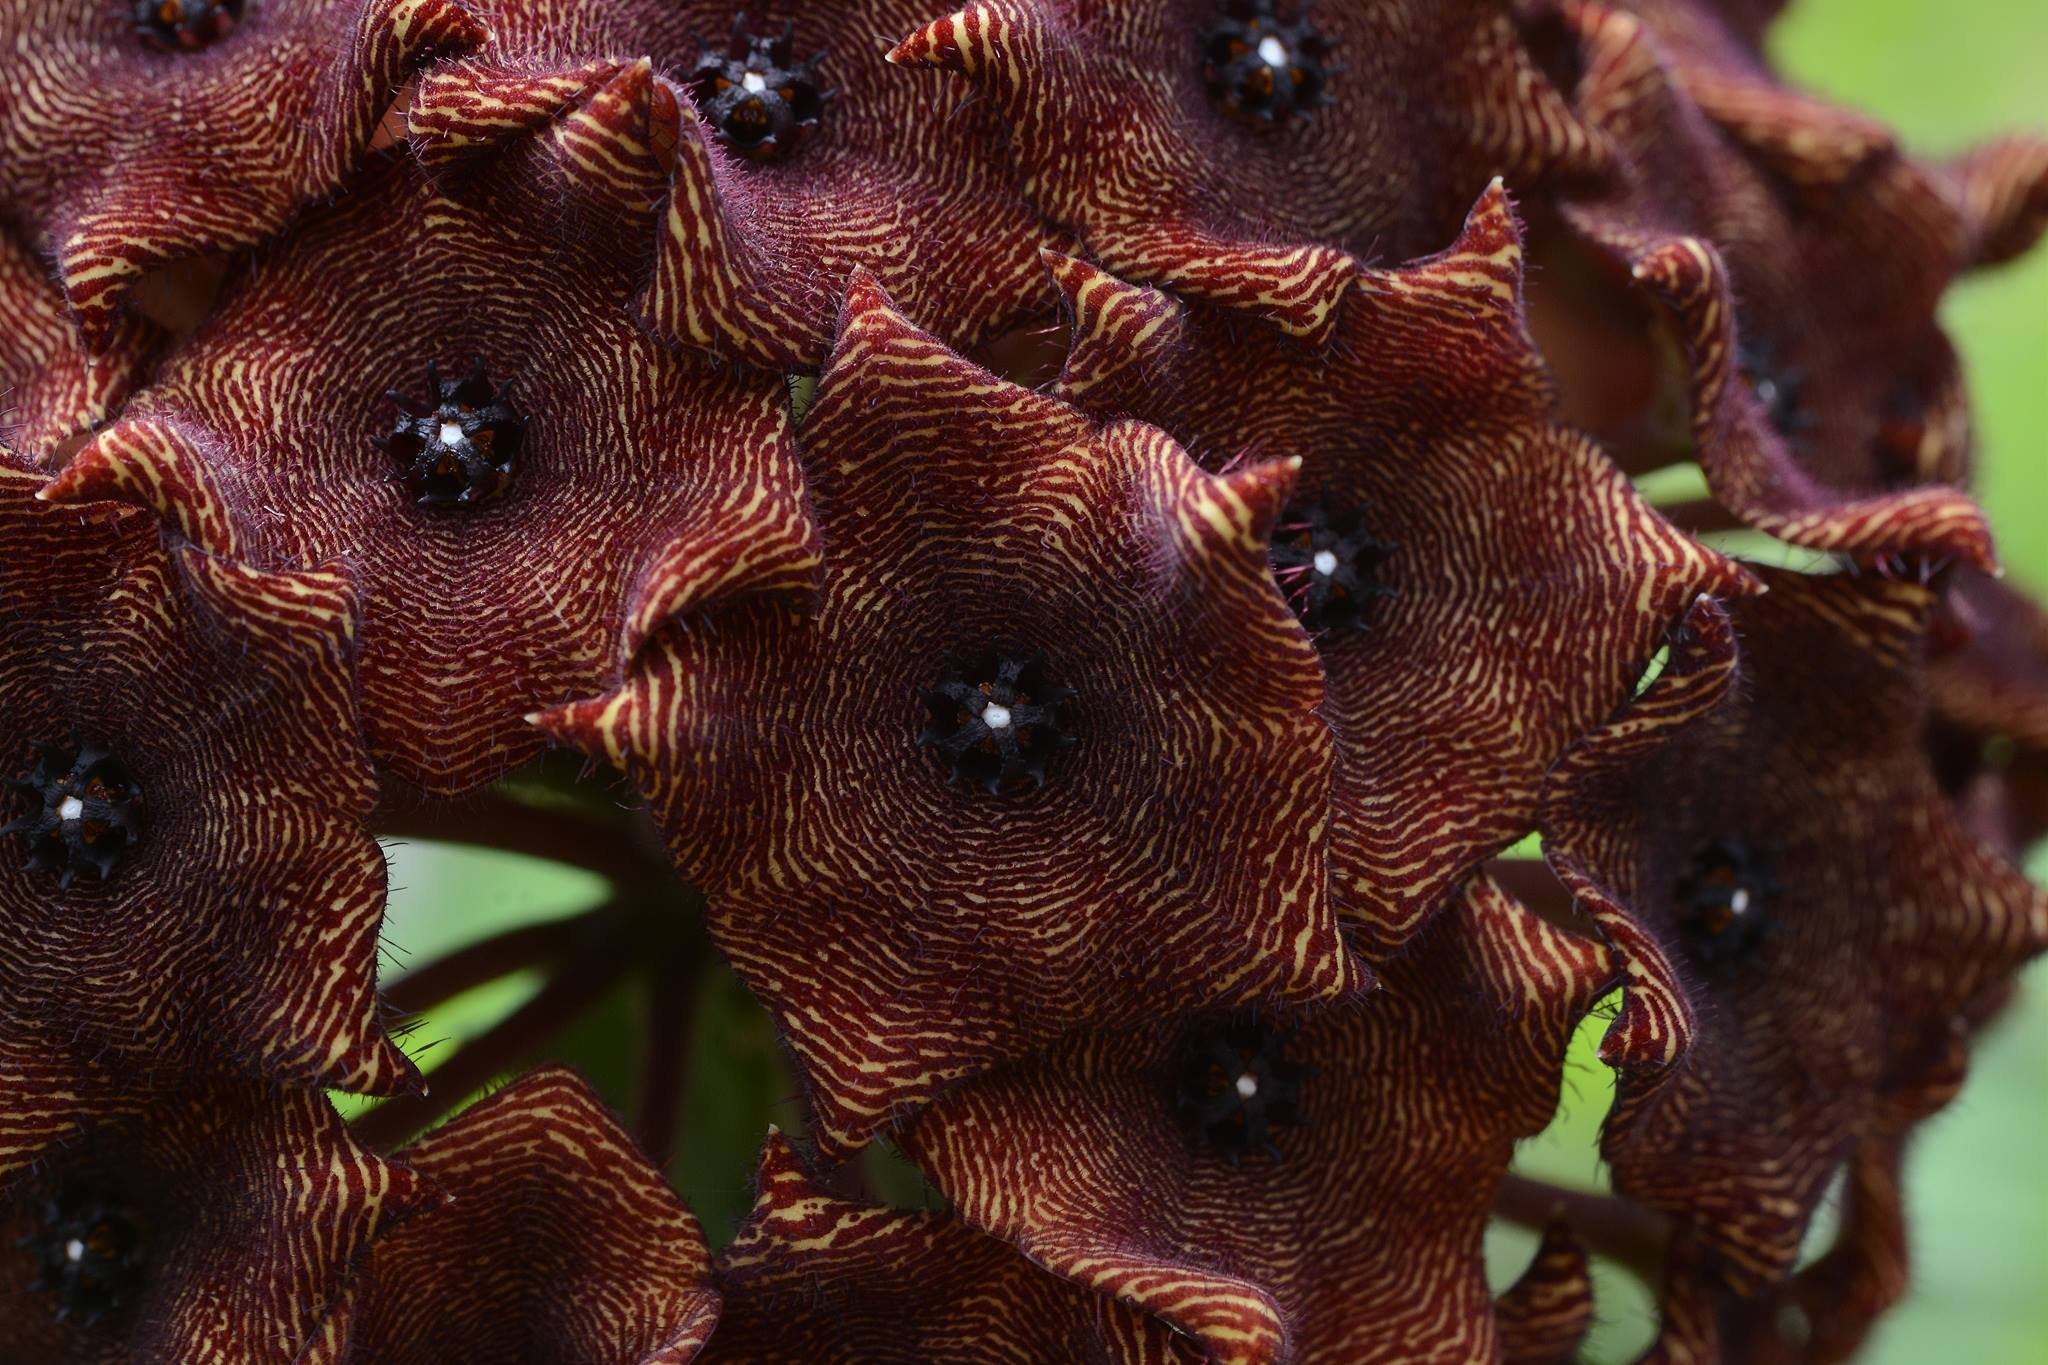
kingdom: Plantae
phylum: Tracheophyta
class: Magnoliopsida
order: Gentianales
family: Apocynaceae
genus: Ceropegia
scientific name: Ceropegia umbellata
